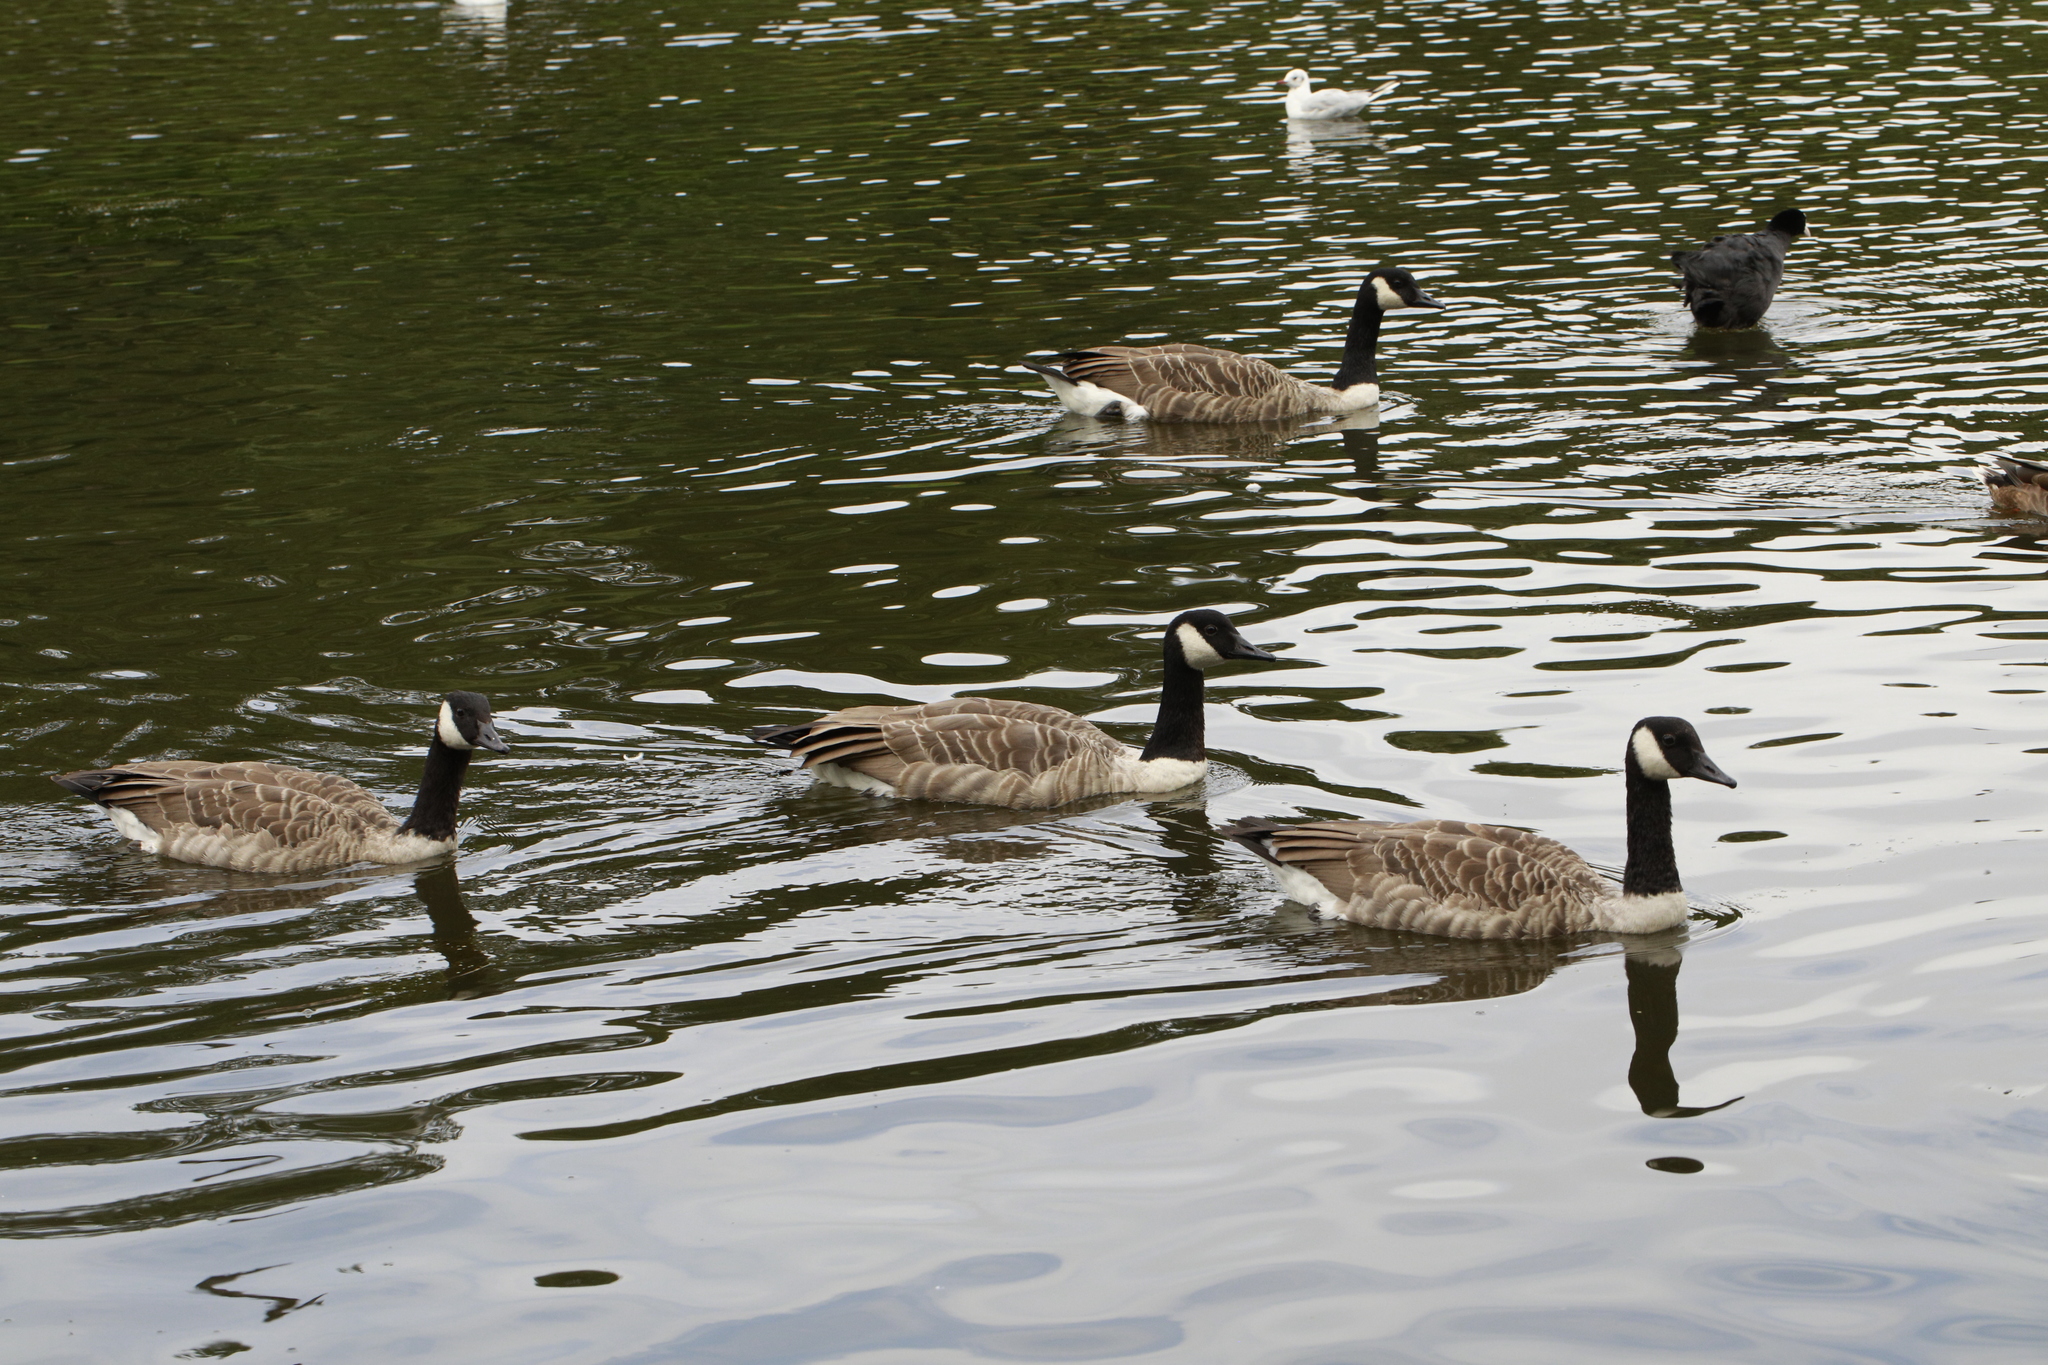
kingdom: Animalia
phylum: Chordata
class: Aves
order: Anseriformes
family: Anatidae
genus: Branta
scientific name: Branta canadensis
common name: Canada goose
